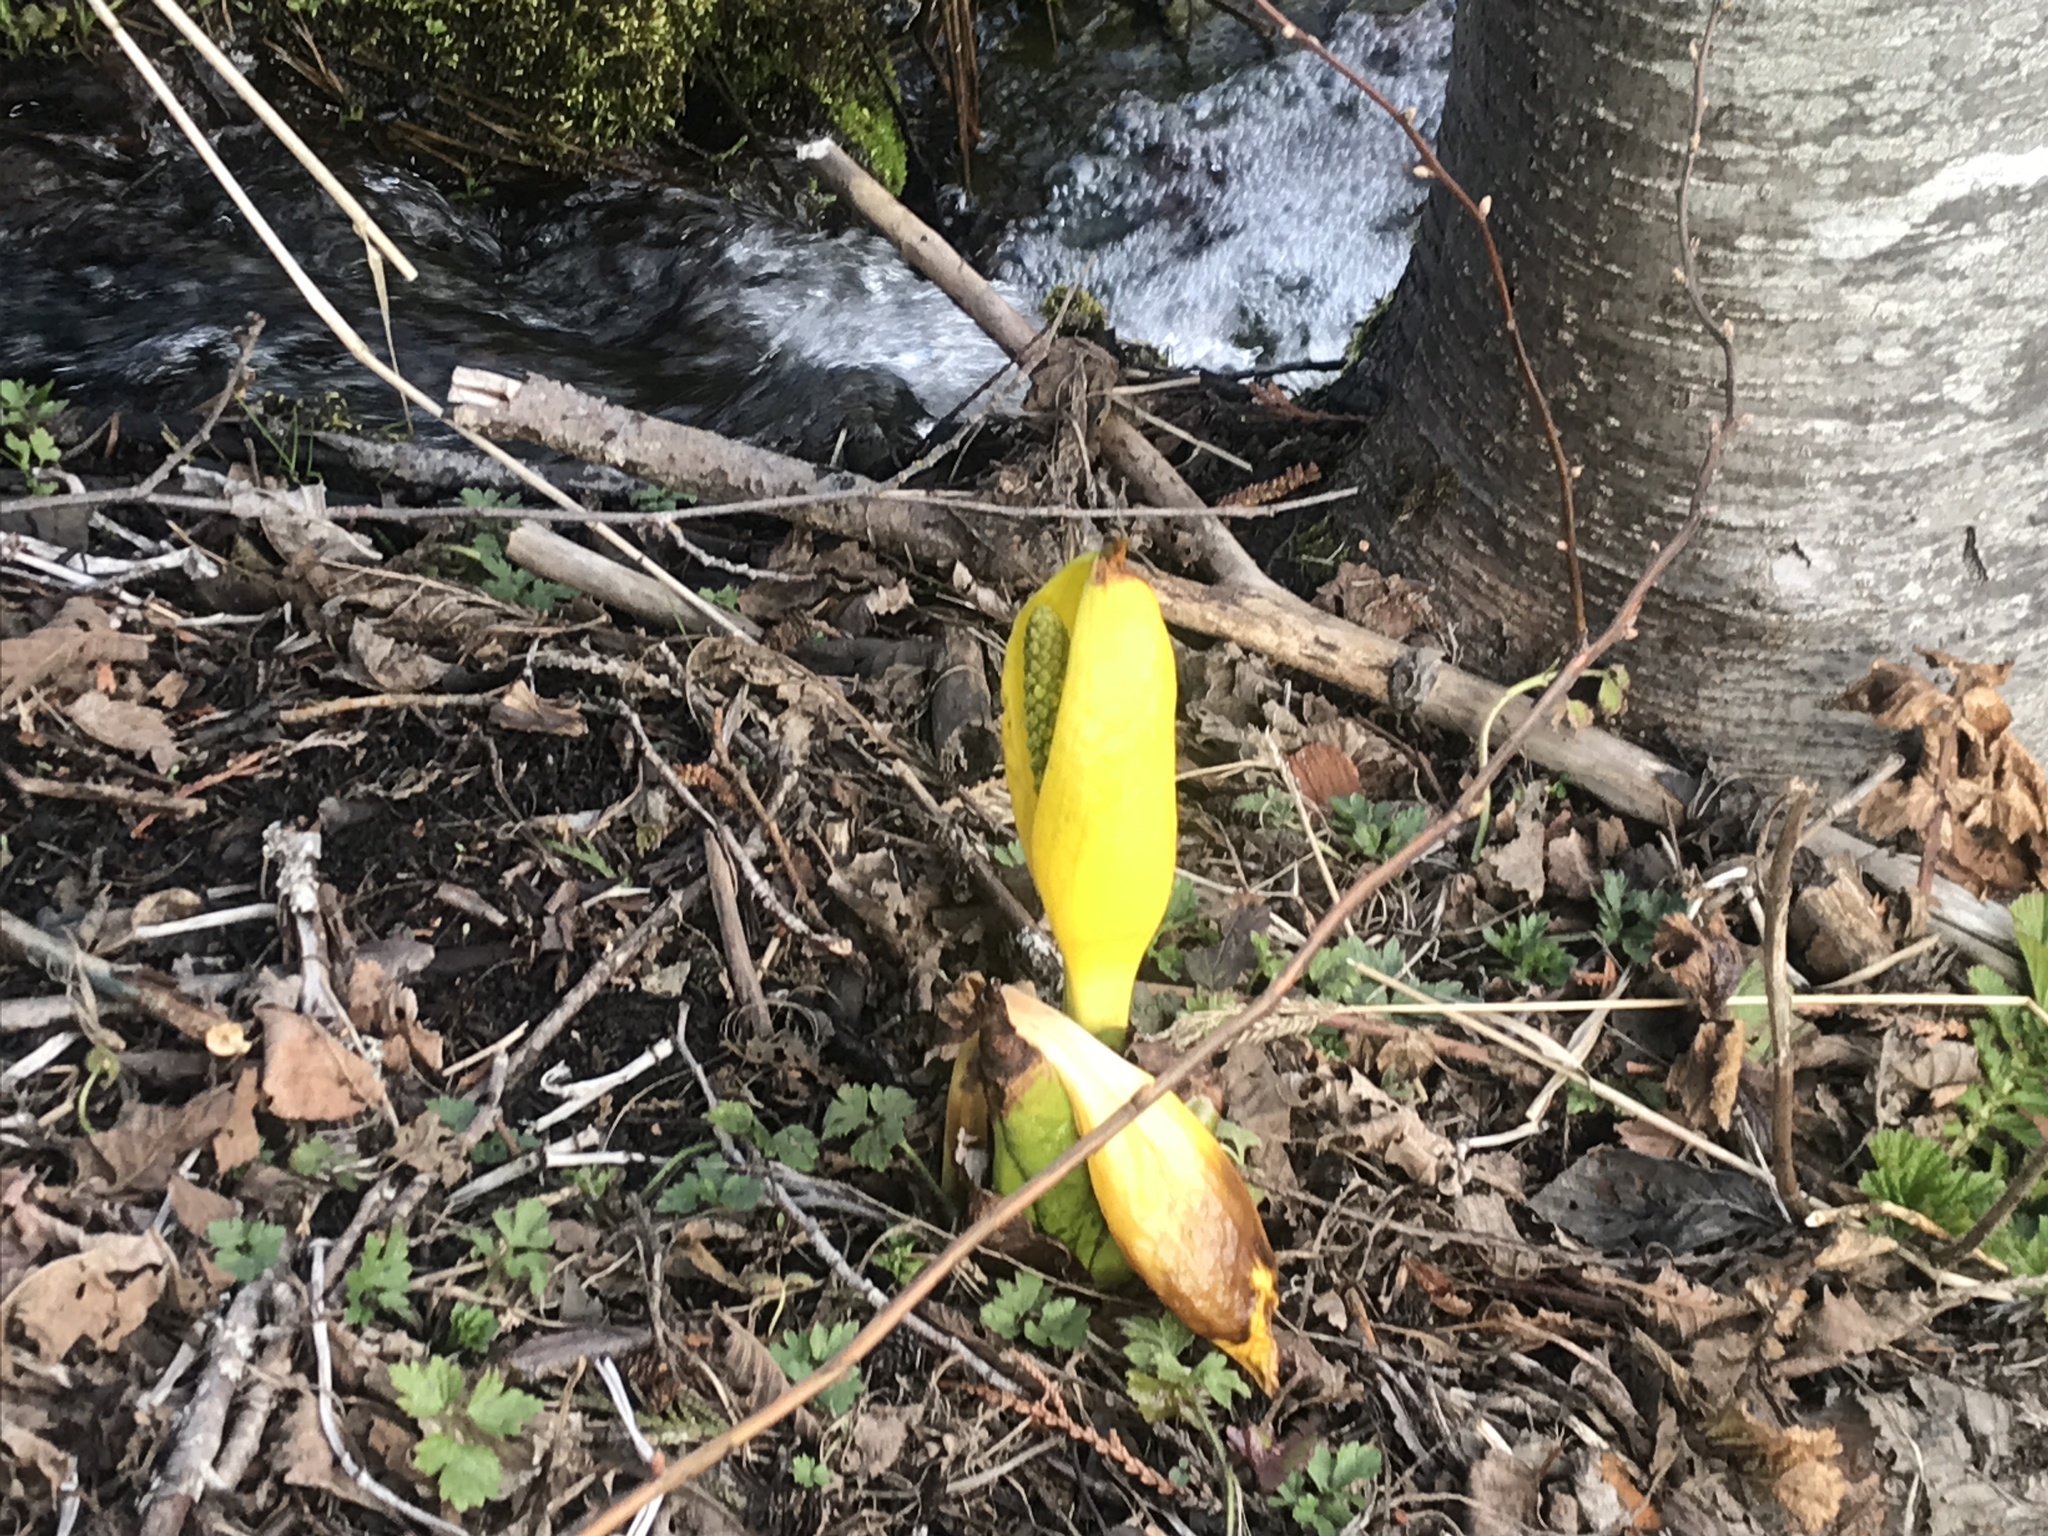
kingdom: Plantae
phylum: Tracheophyta
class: Liliopsida
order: Alismatales
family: Araceae
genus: Lysichiton
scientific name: Lysichiton americanus
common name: American skunk cabbage
